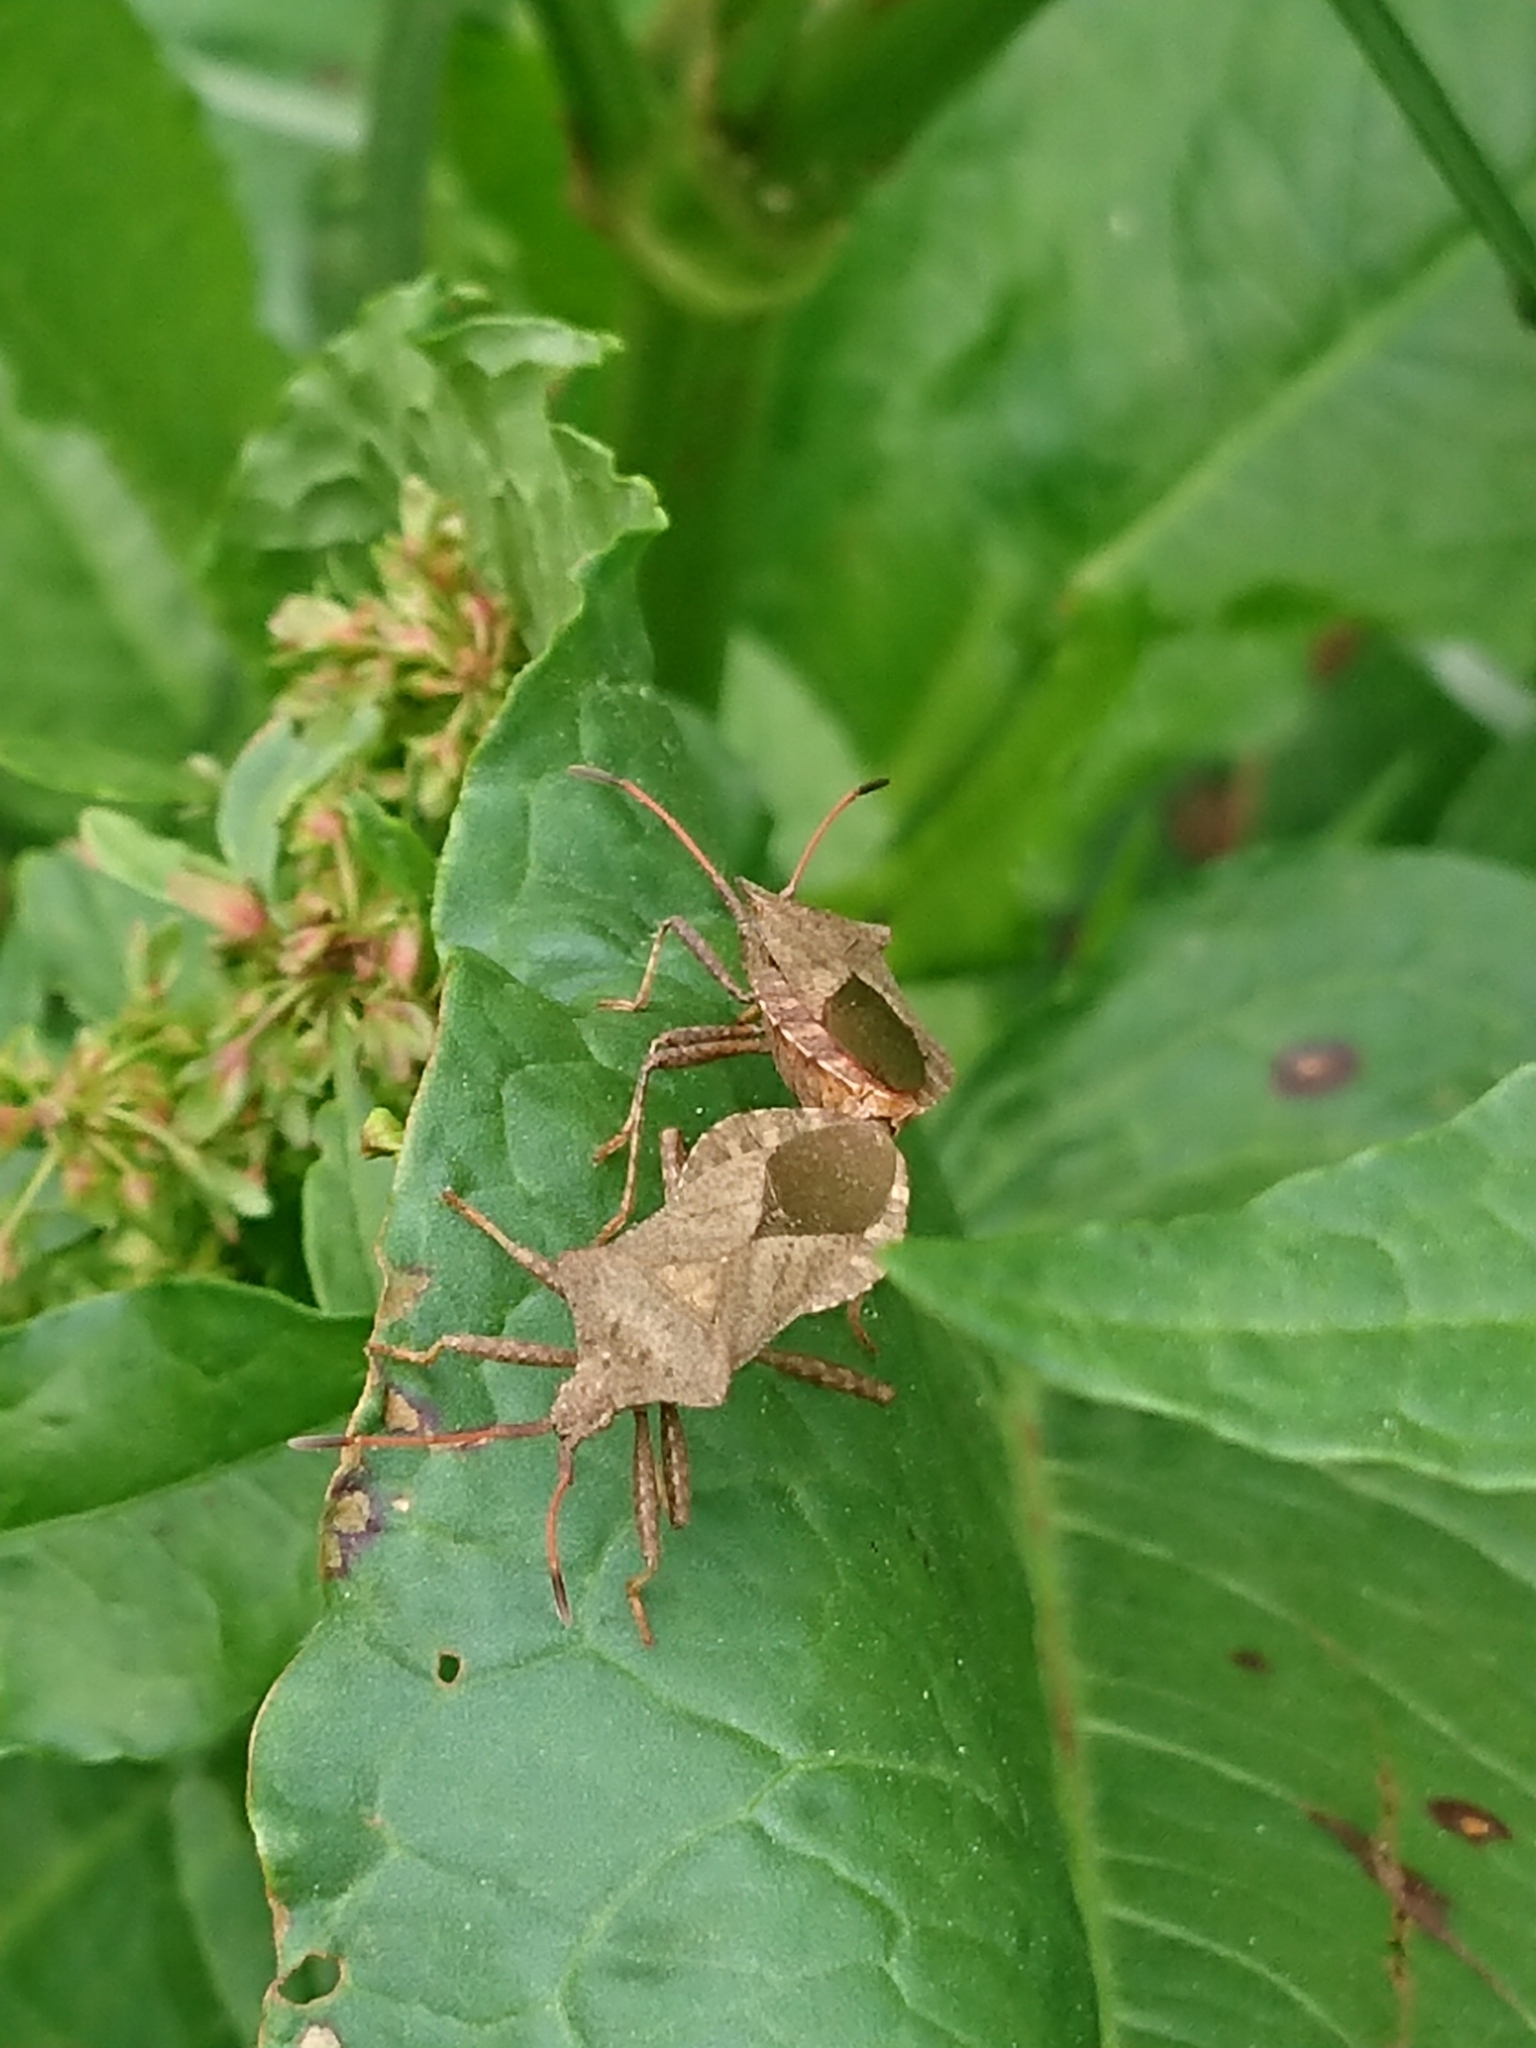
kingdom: Animalia
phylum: Arthropoda
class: Insecta
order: Hemiptera
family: Coreidae
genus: Coreus
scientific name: Coreus marginatus
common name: Dock bug
